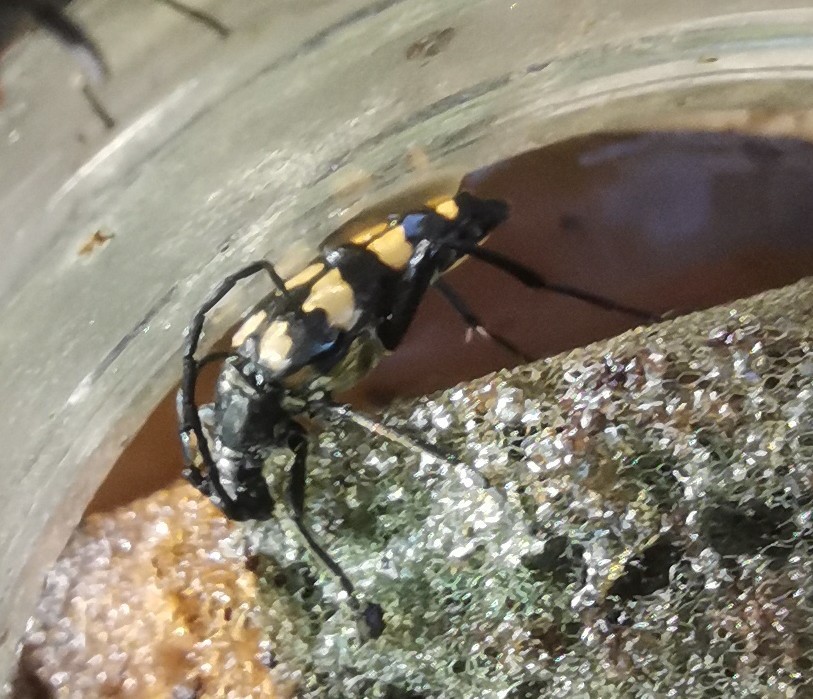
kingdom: Animalia
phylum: Arthropoda
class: Insecta
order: Coleoptera
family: Cerambycidae
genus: Leptura
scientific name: Leptura quadrifasciata
